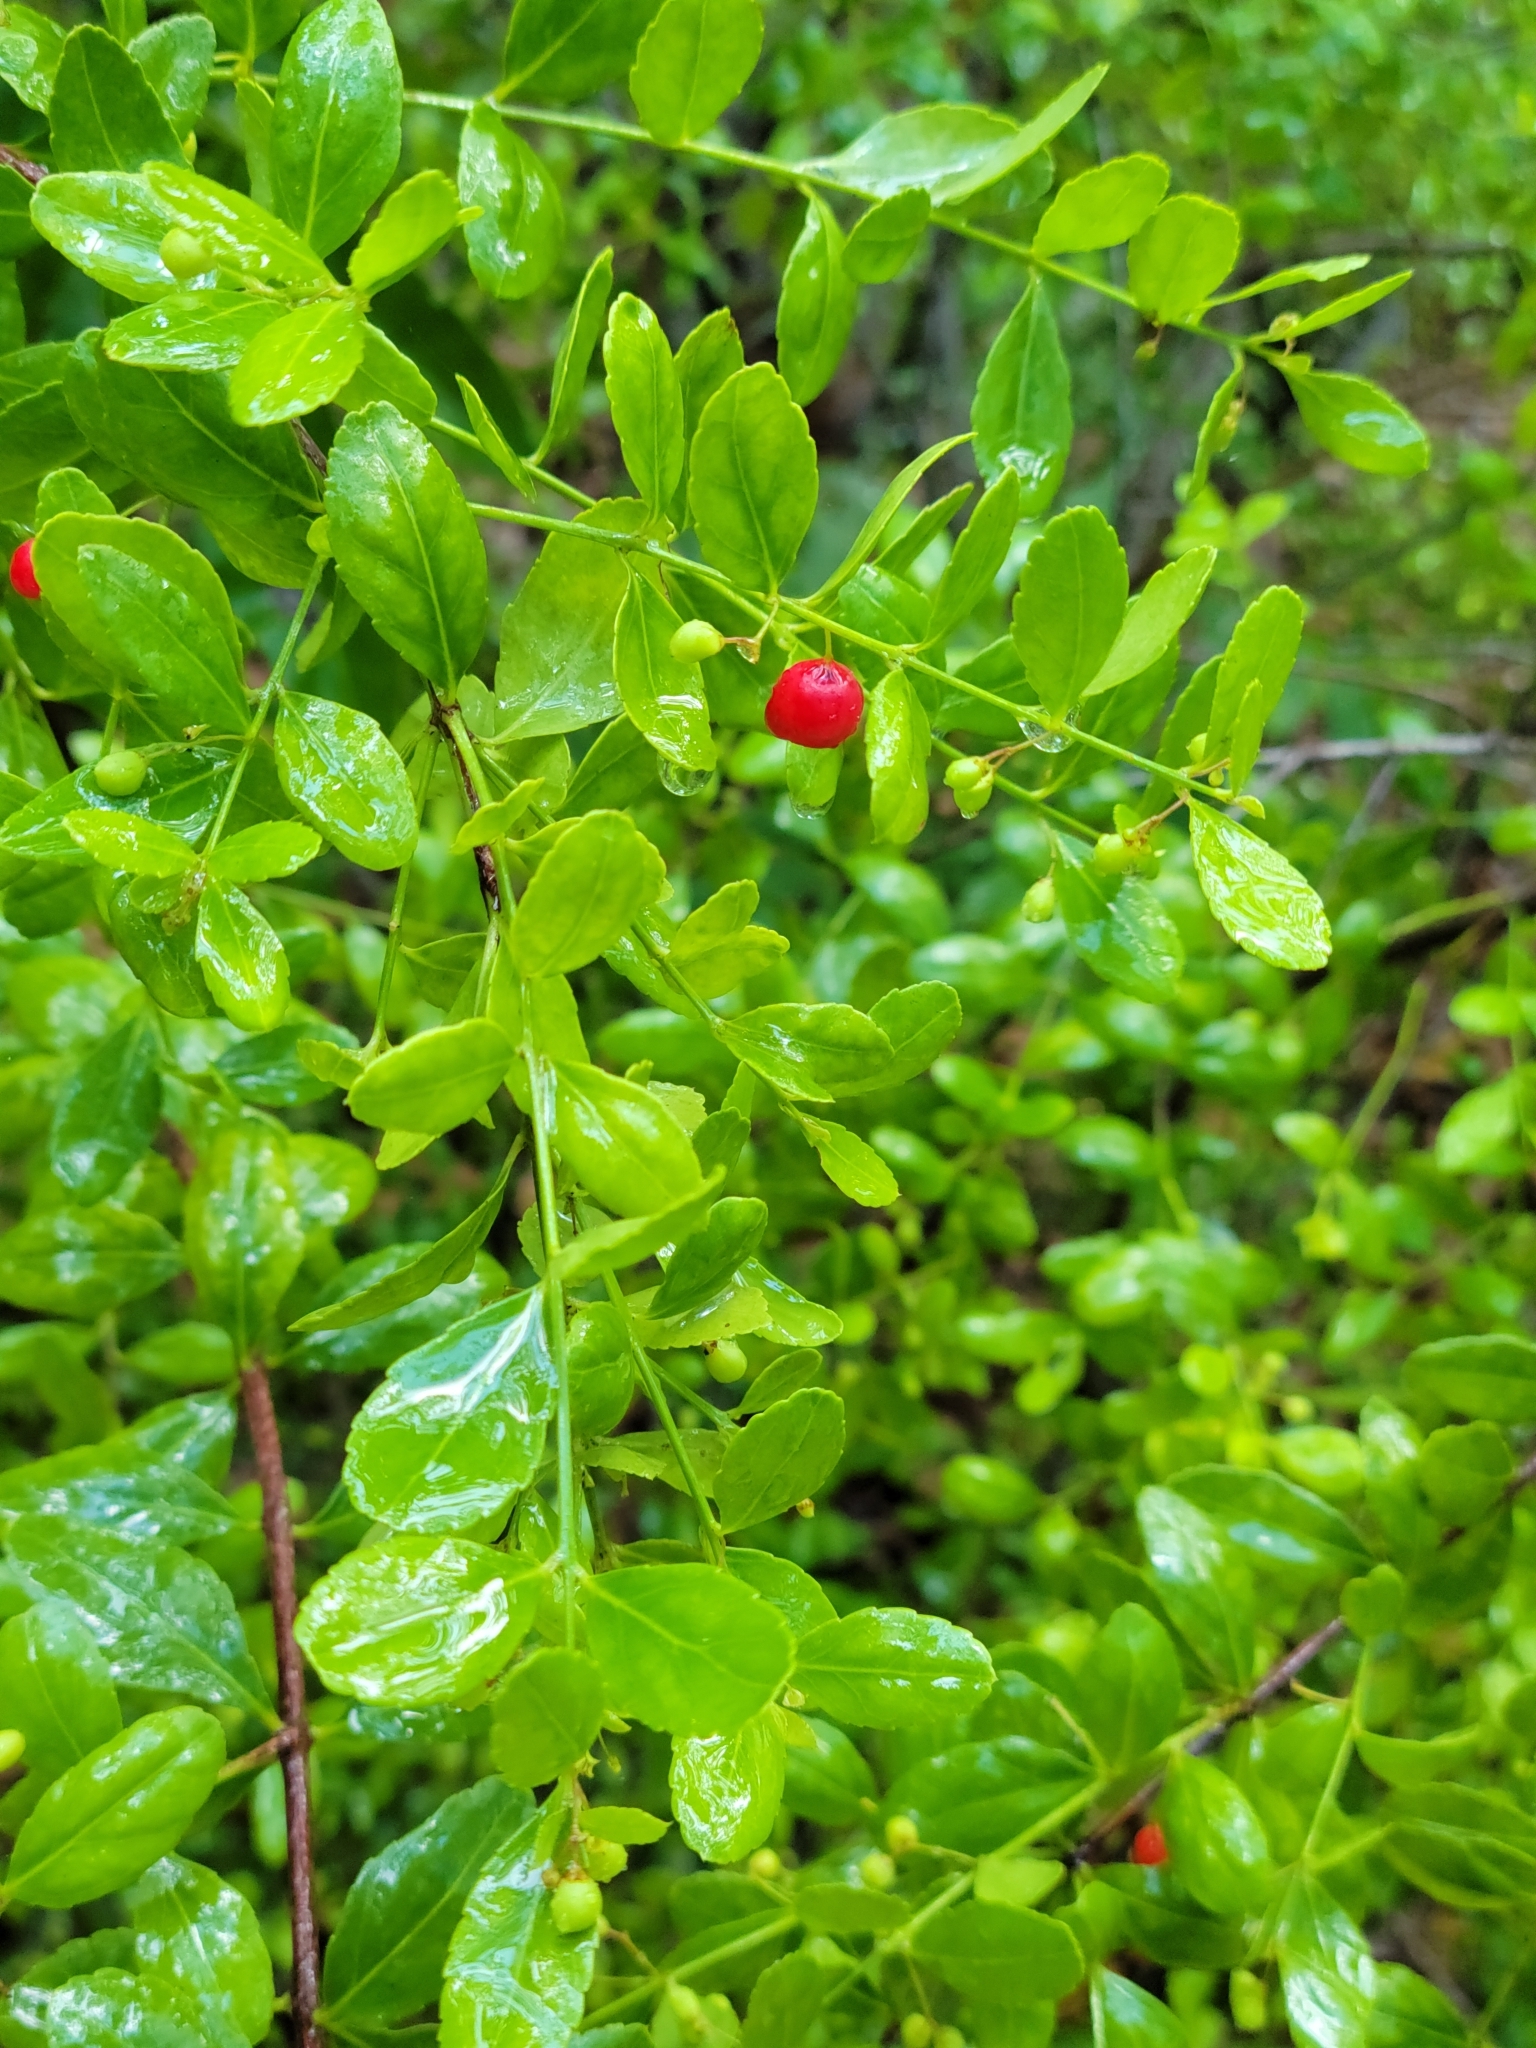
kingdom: Plantae
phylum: Tracheophyta
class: Magnoliopsida
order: Celastrales
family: Celastraceae
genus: Crossopetalum
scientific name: Crossopetalum rhacoma
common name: Maidenberry
